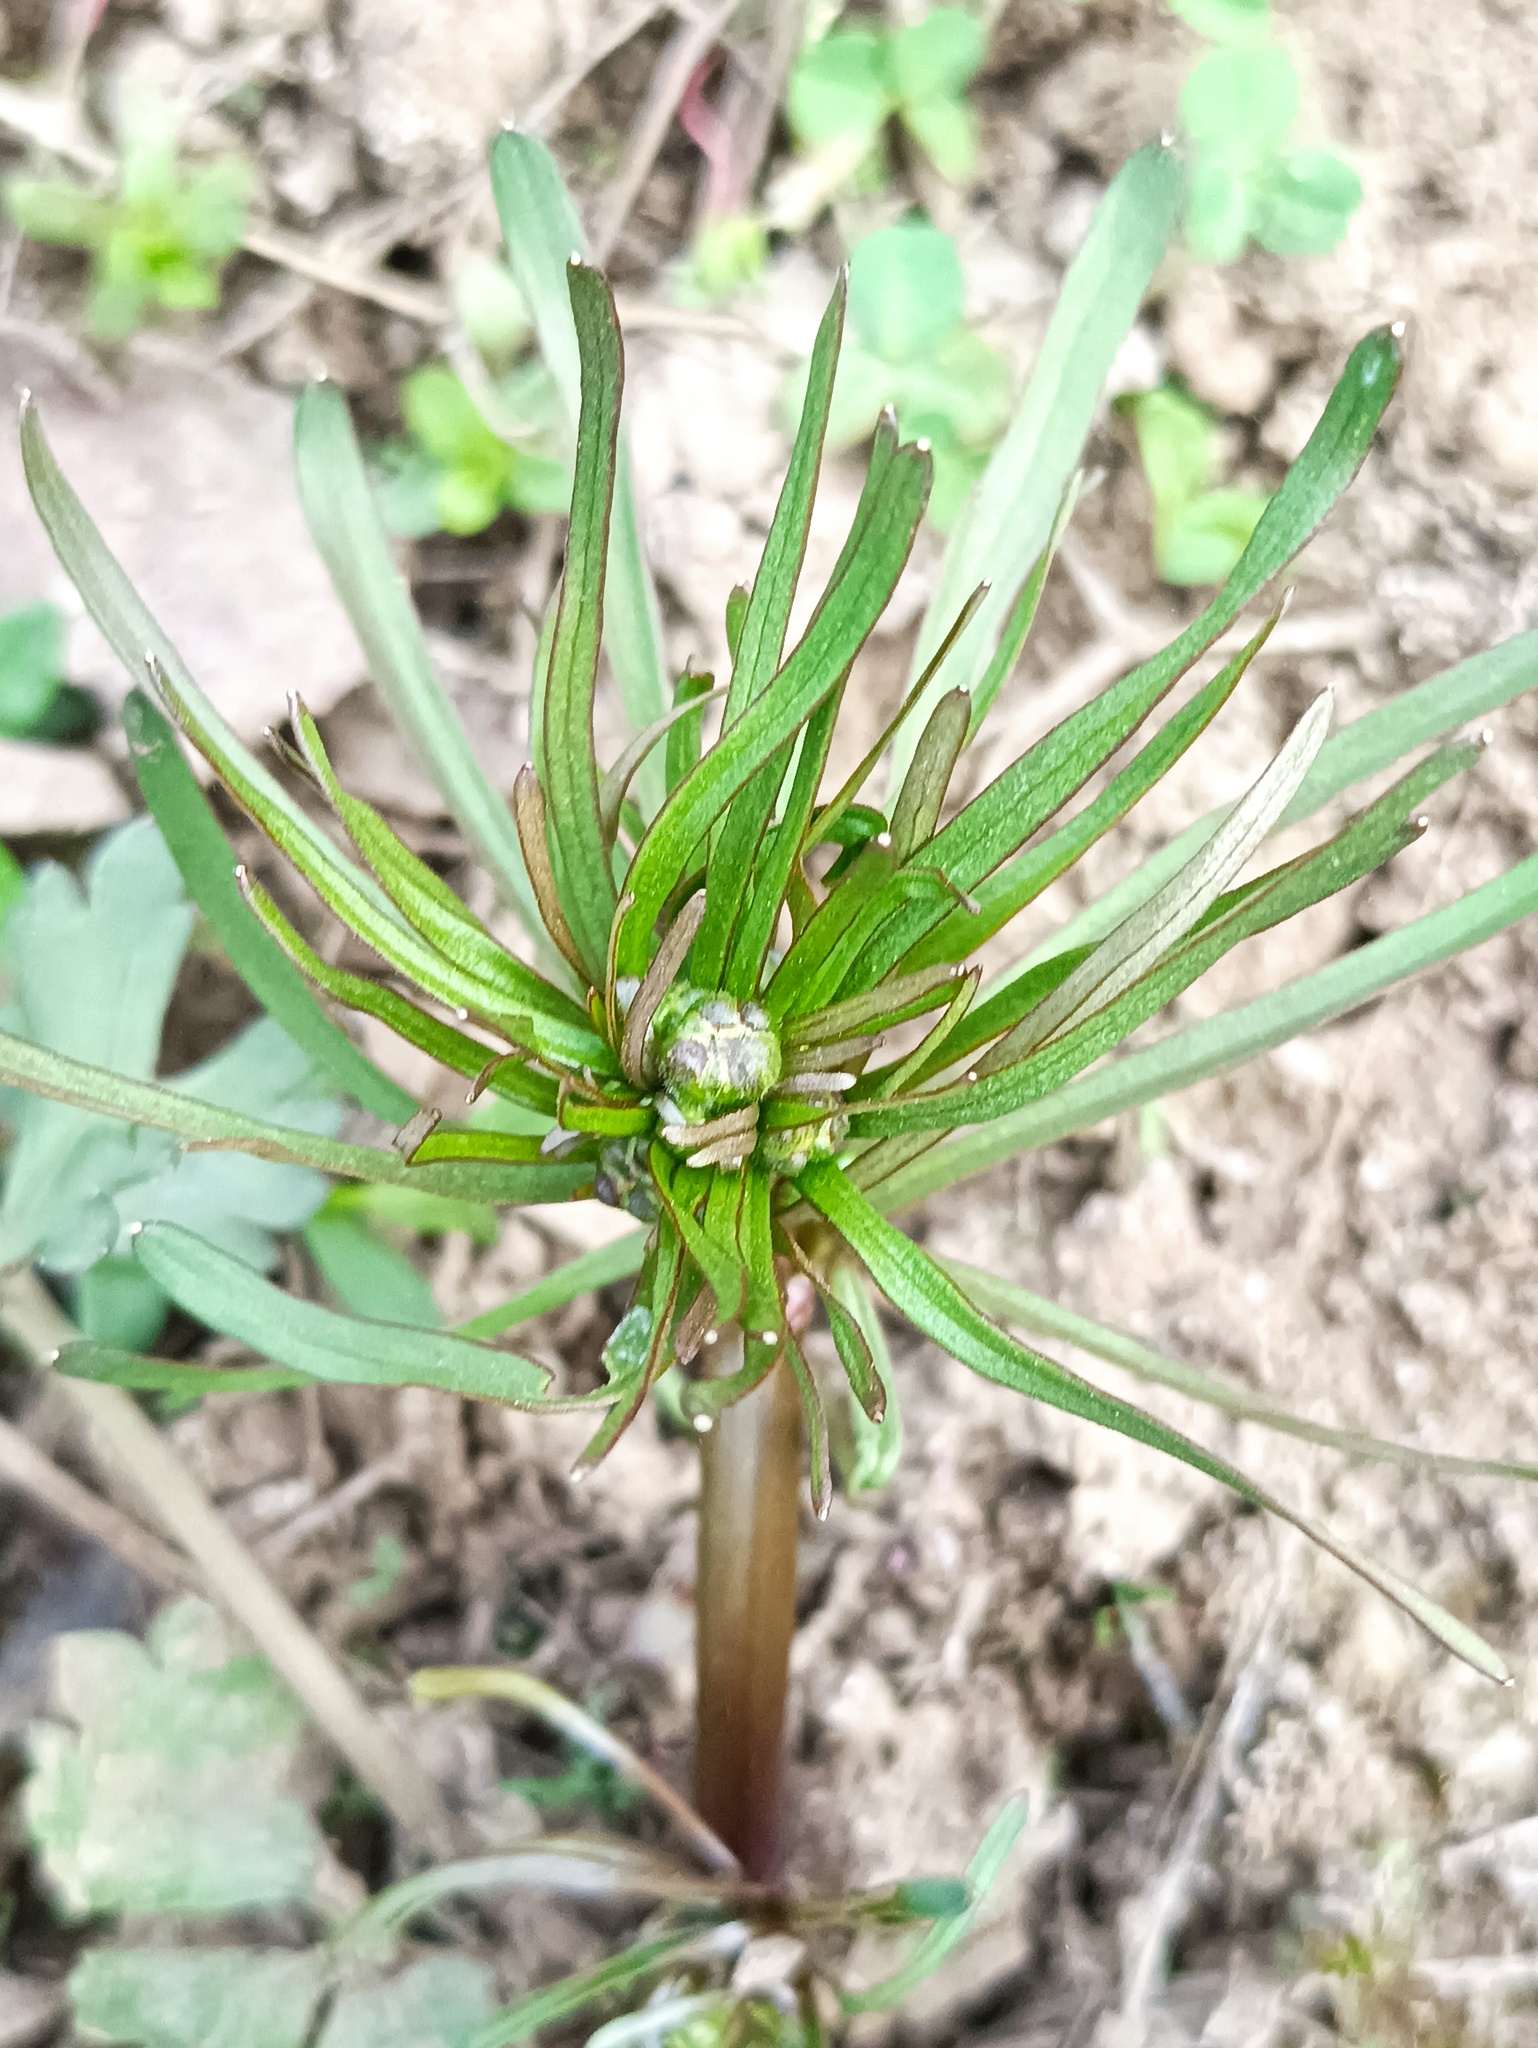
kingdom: Plantae
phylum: Tracheophyta
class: Magnoliopsida
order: Ranunculales
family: Ranunculaceae
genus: Ranunculus
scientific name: Ranunculus auricomus
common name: Goldilocks buttercup
